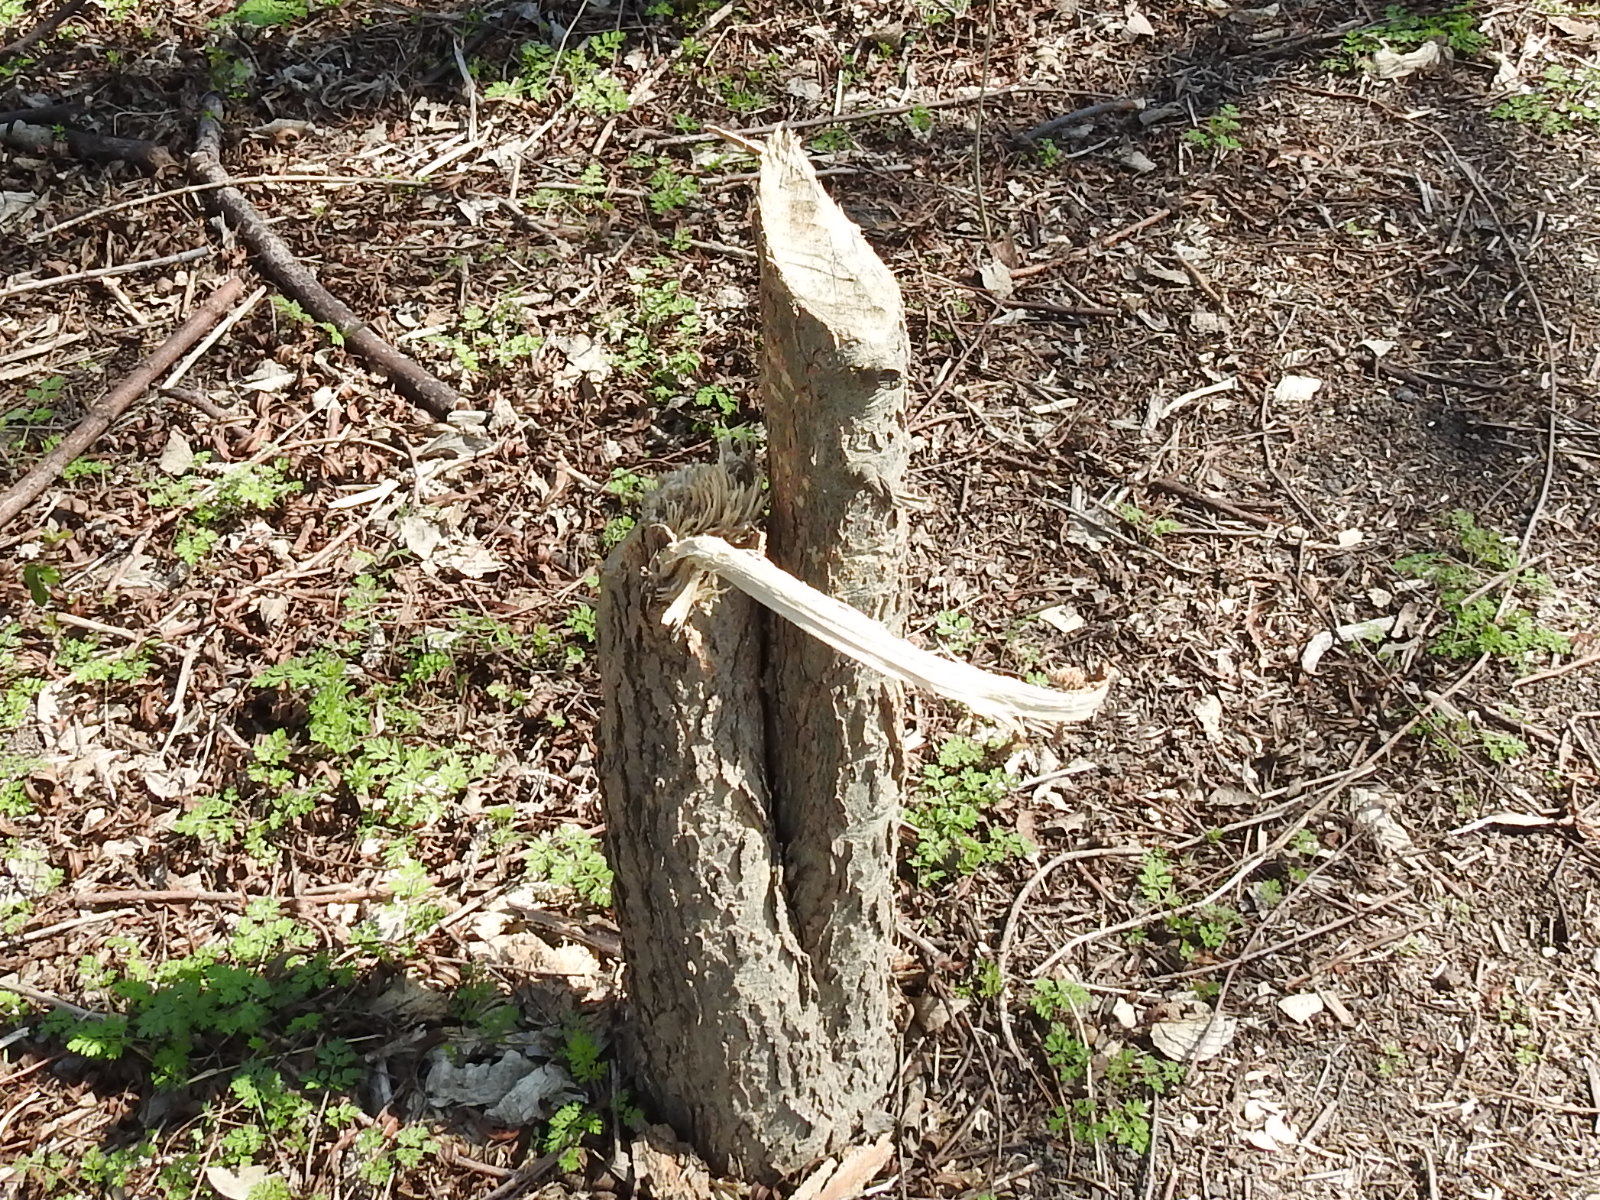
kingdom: Animalia
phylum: Chordata
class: Mammalia
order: Rodentia
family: Castoridae
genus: Castor
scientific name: Castor canadensis
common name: American beaver
